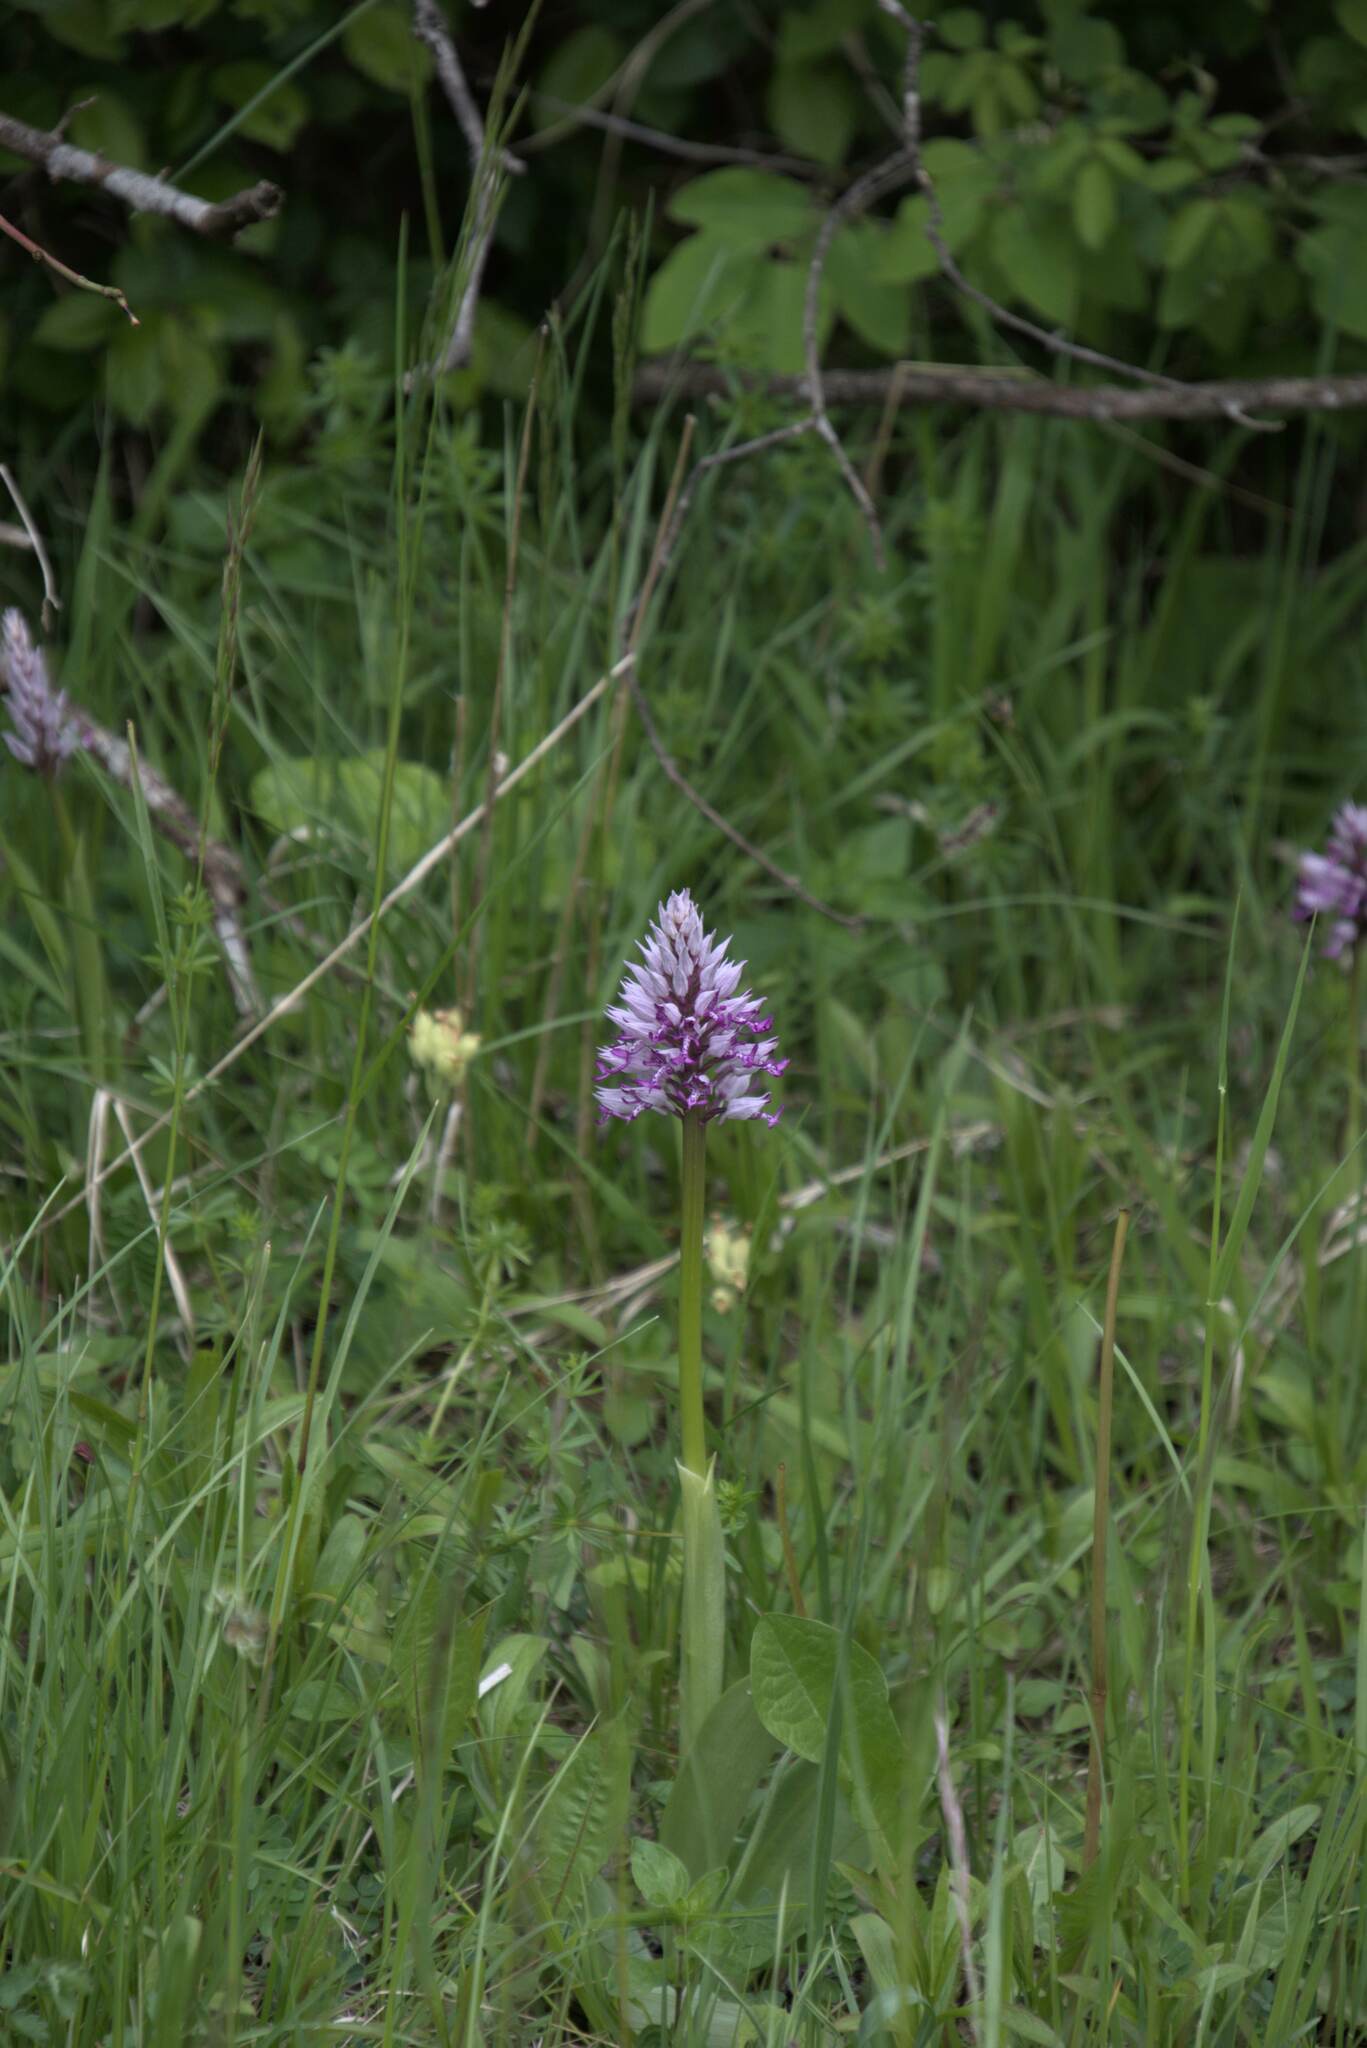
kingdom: Plantae
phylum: Tracheophyta
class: Liliopsida
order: Asparagales
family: Orchidaceae
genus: Orchis
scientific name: Orchis militaris
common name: Military orchid
